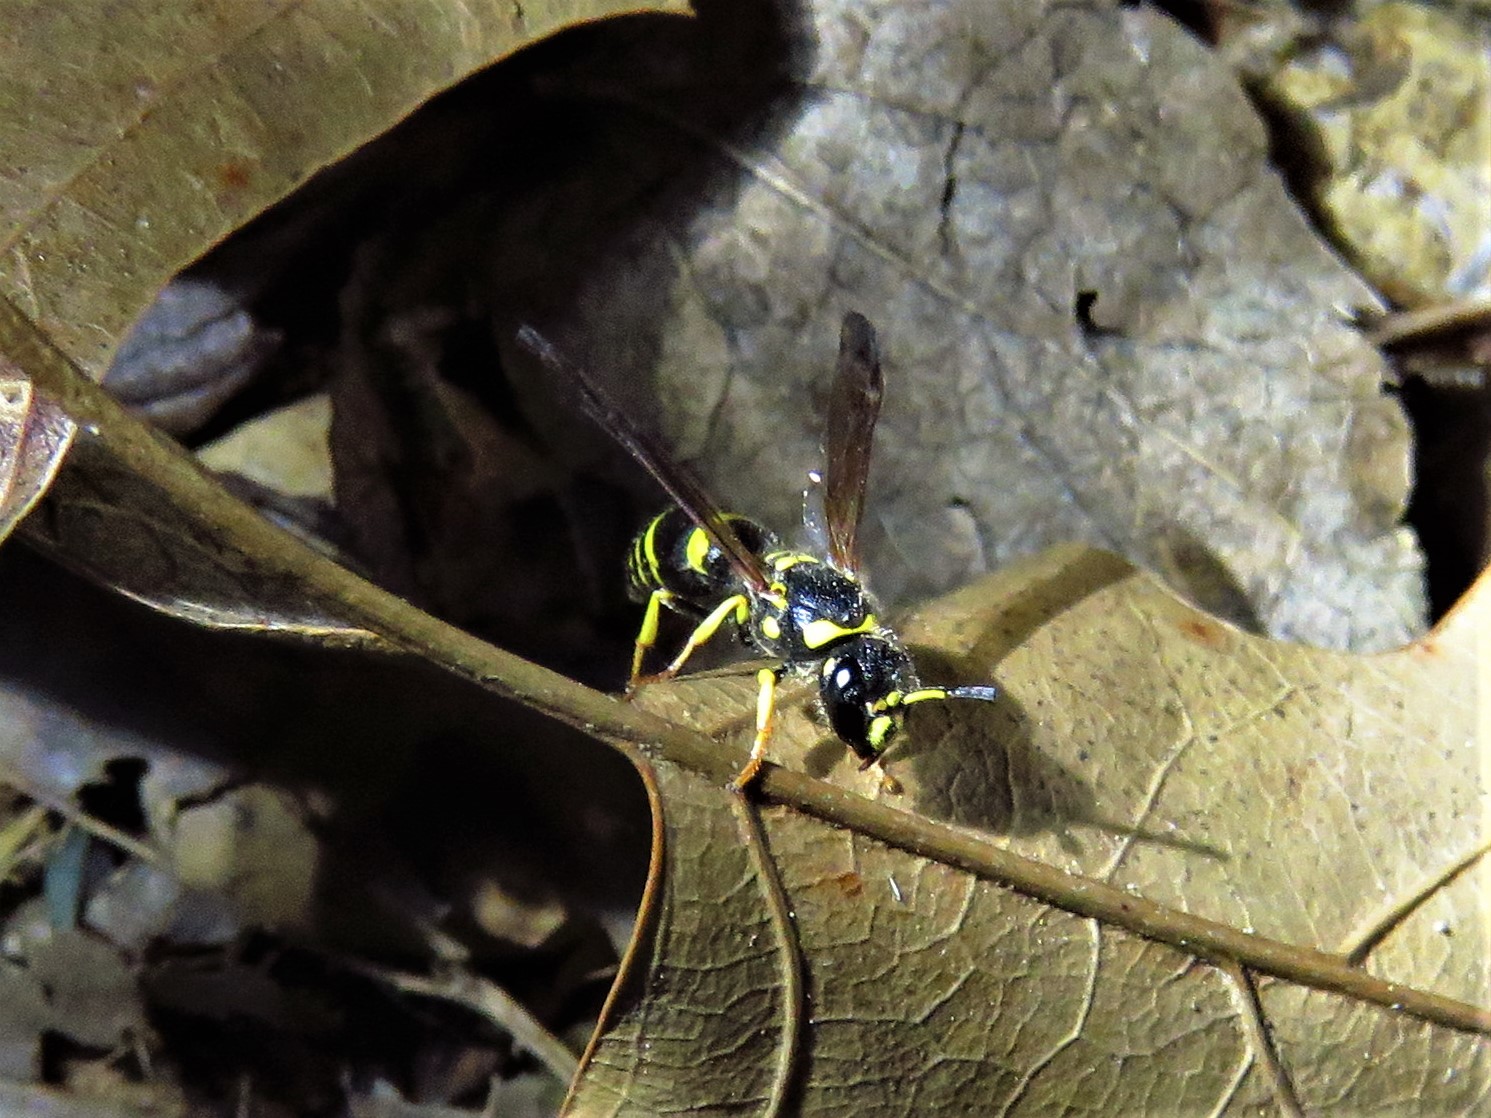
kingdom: Animalia
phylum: Arthropoda
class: Insecta
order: Hymenoptera
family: Vespidae
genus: Ancistrocerus
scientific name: Ancistrocerus adiabatus
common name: Bramble mason wasp
